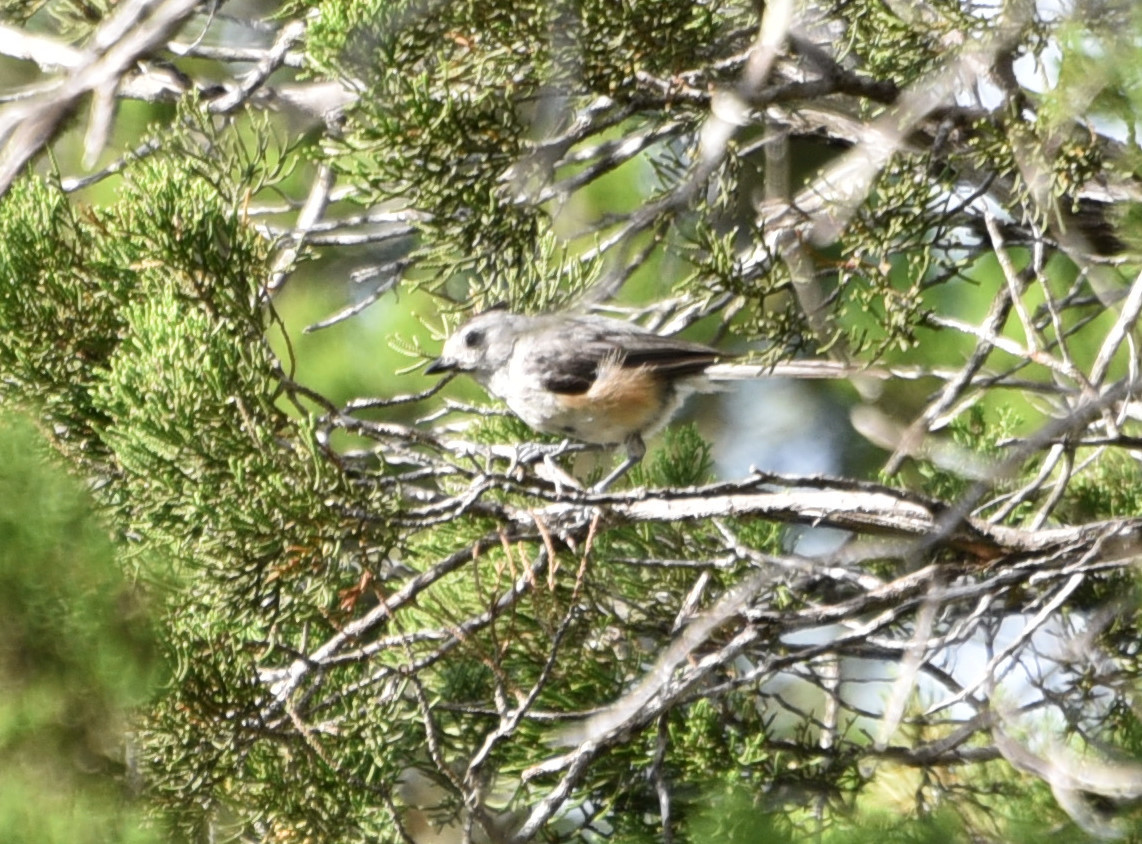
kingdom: Animalia
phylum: Chordata
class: Aves
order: Passeriformes
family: Paridae
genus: Baeolophus
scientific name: Baeolophus atricristatus
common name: Black-crested titmouse
